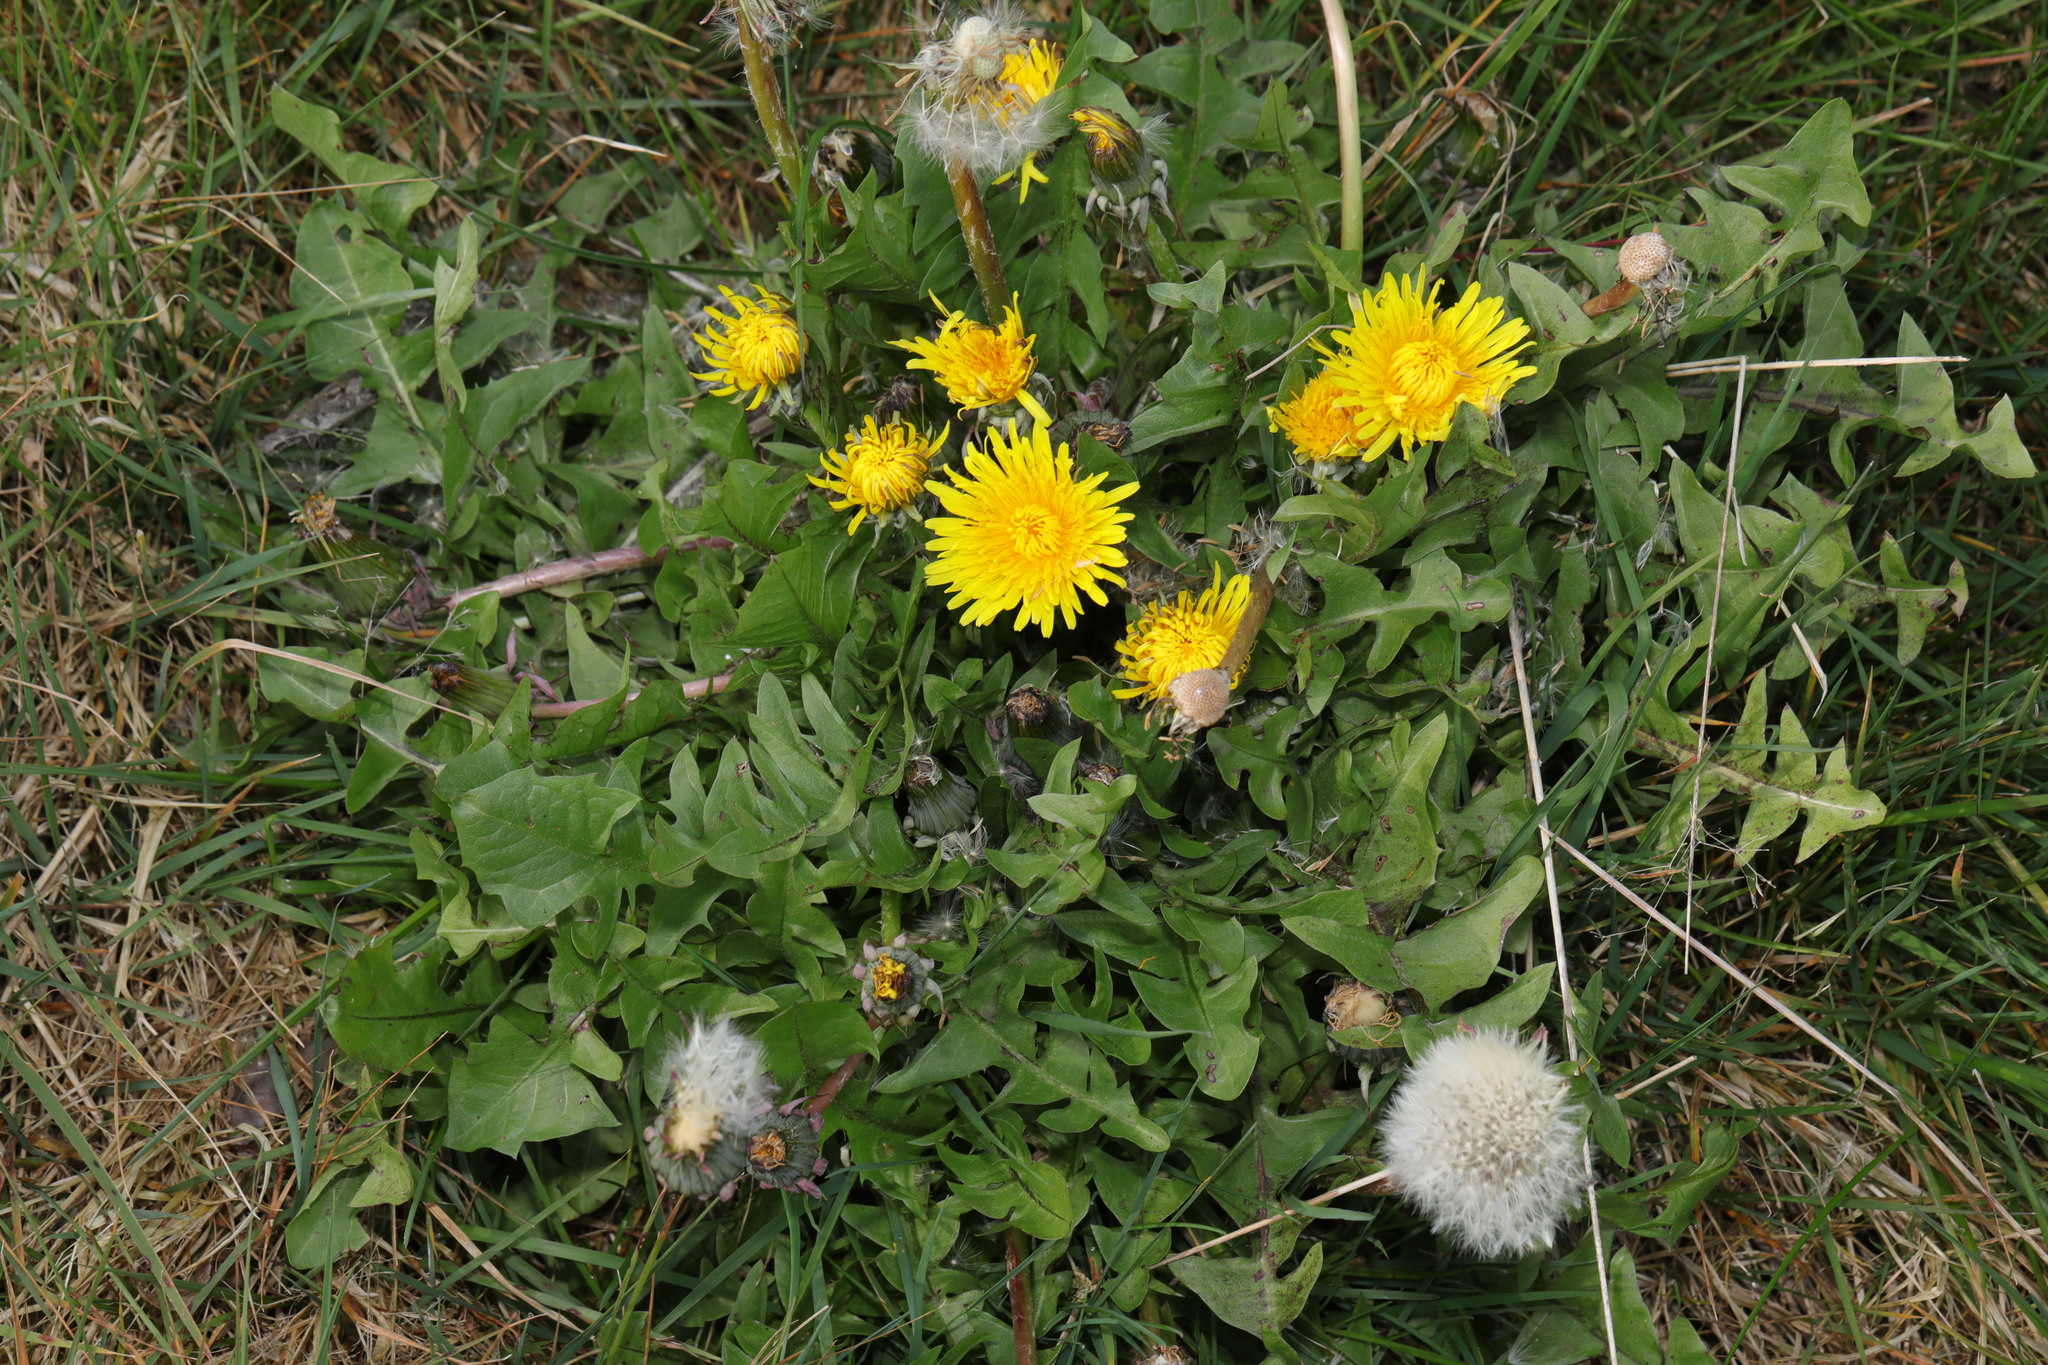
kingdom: Plantae
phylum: Tracheophyta
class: Magnoliopsida
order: Asterales
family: Asteraceae
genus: Taraxacum
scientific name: Taraxacum officinale
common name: Common dandelion
